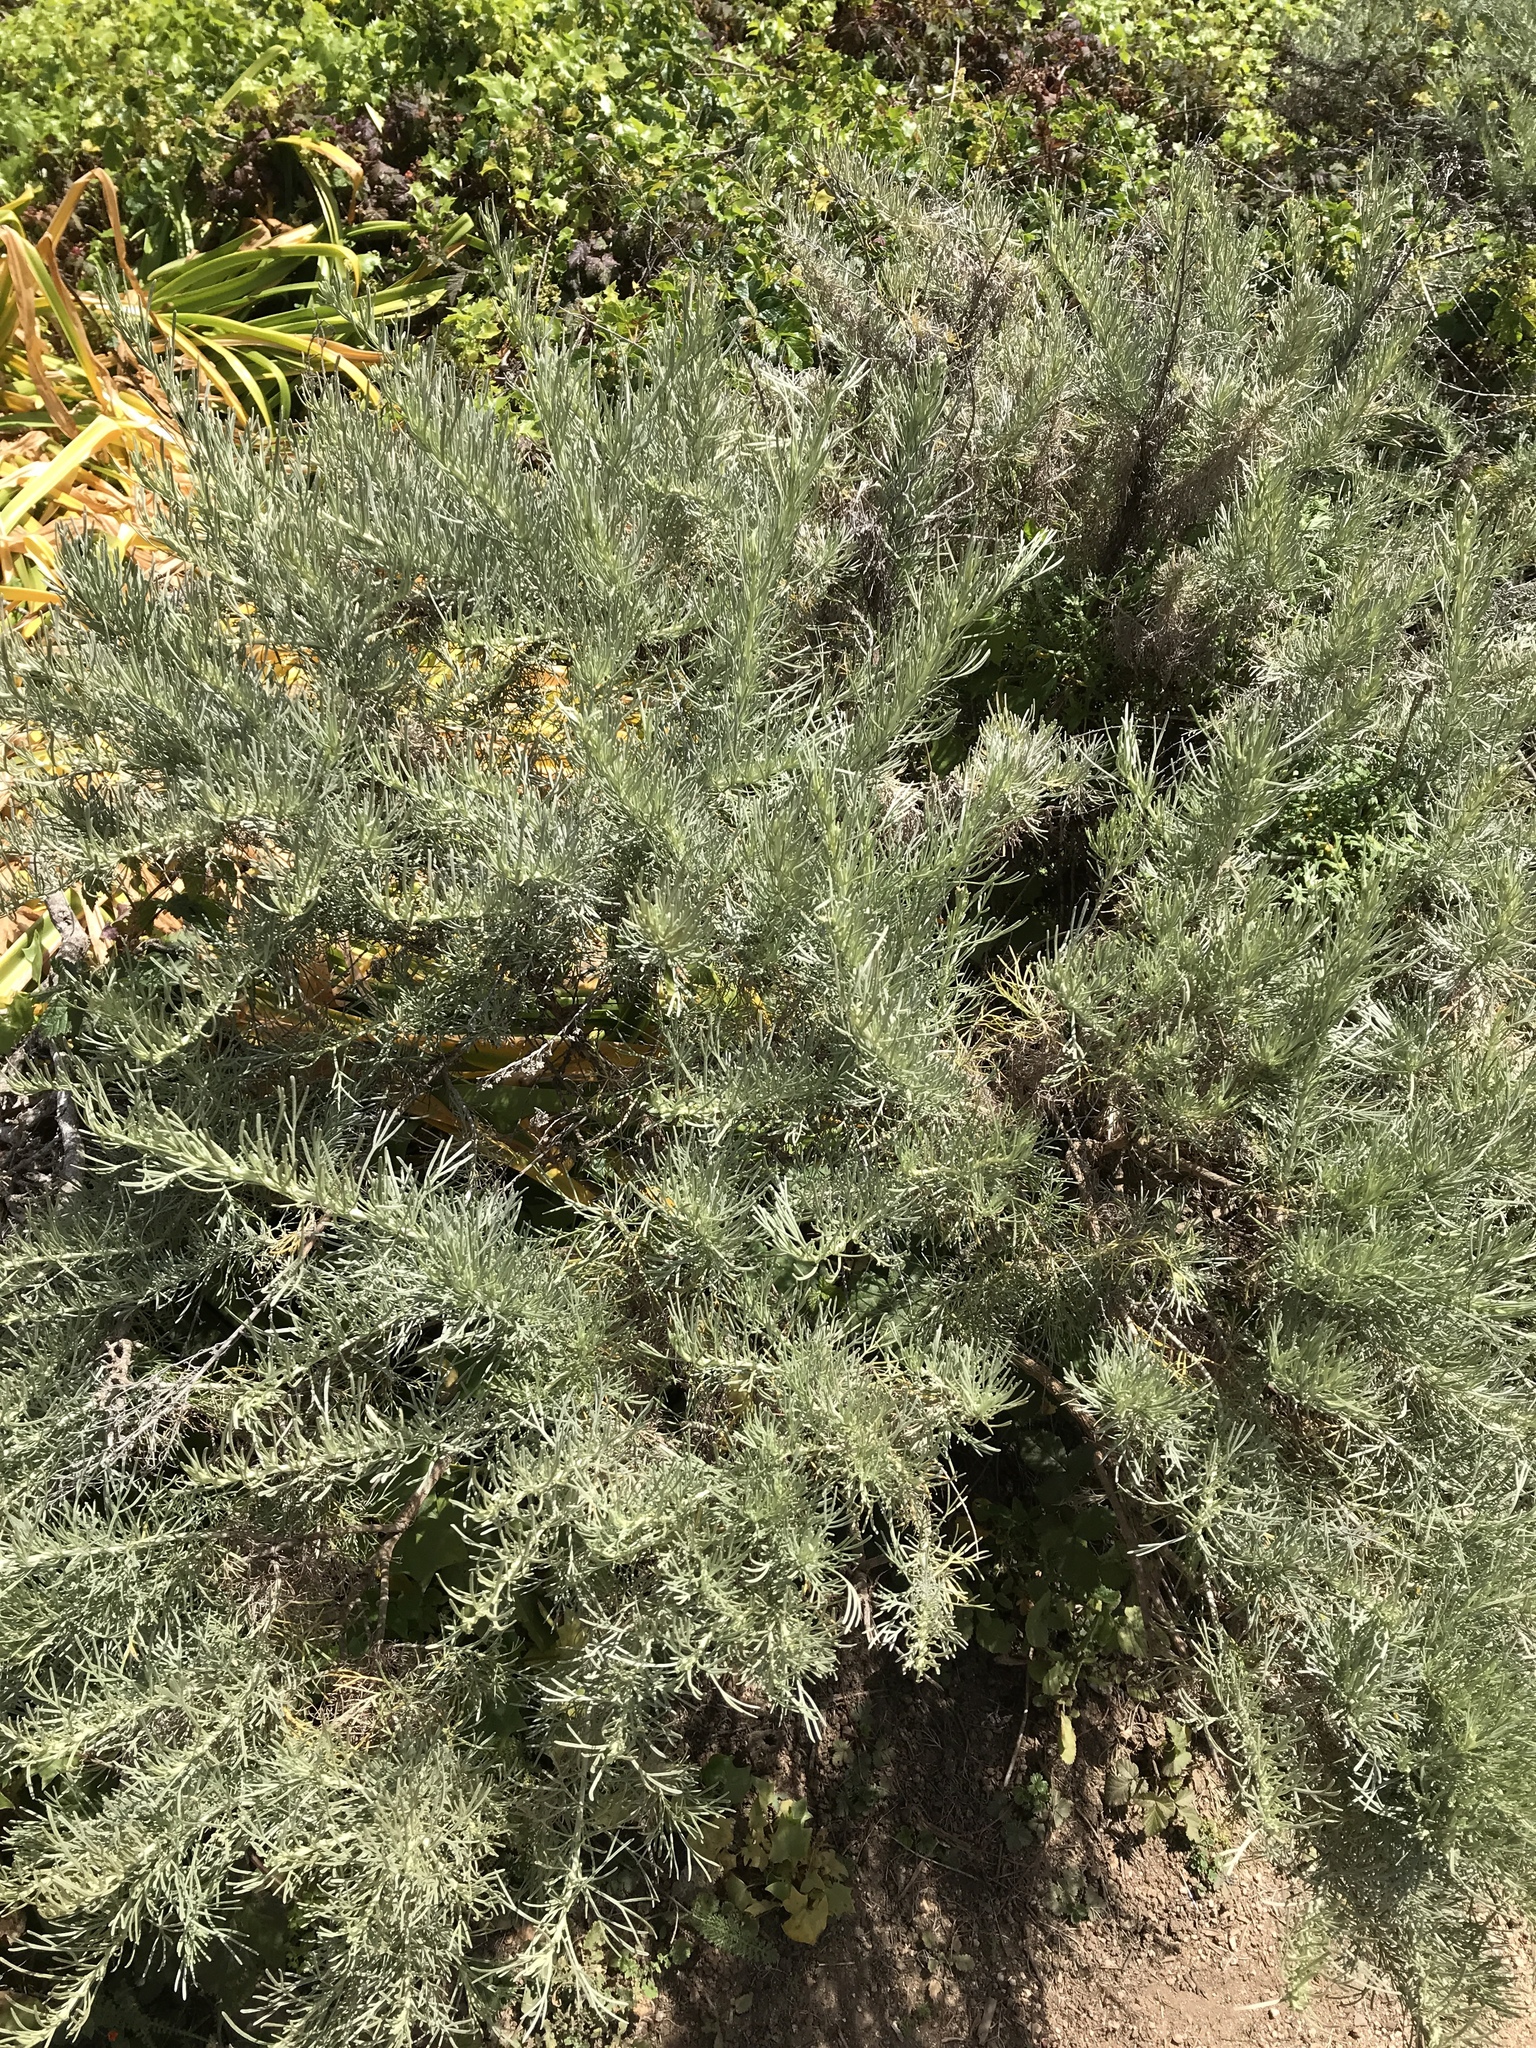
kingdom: Plantae
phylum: Tracheophyta
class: Magnoliopsida
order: Asterales
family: Asteraceae
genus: Artemisia
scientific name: Artemisia californica
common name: California sagebrush
